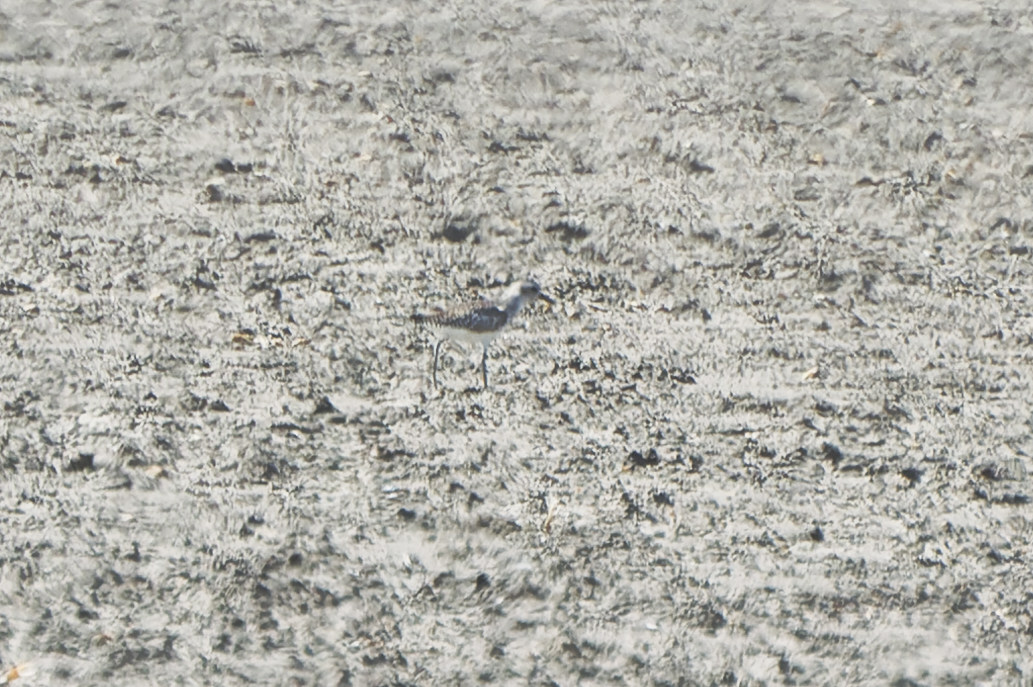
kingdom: Animalia
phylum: Chordata
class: Aves
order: Charadriiformes
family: Charadriidae
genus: Pluvialis
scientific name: Pluvialis squatarola
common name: Grey plover
